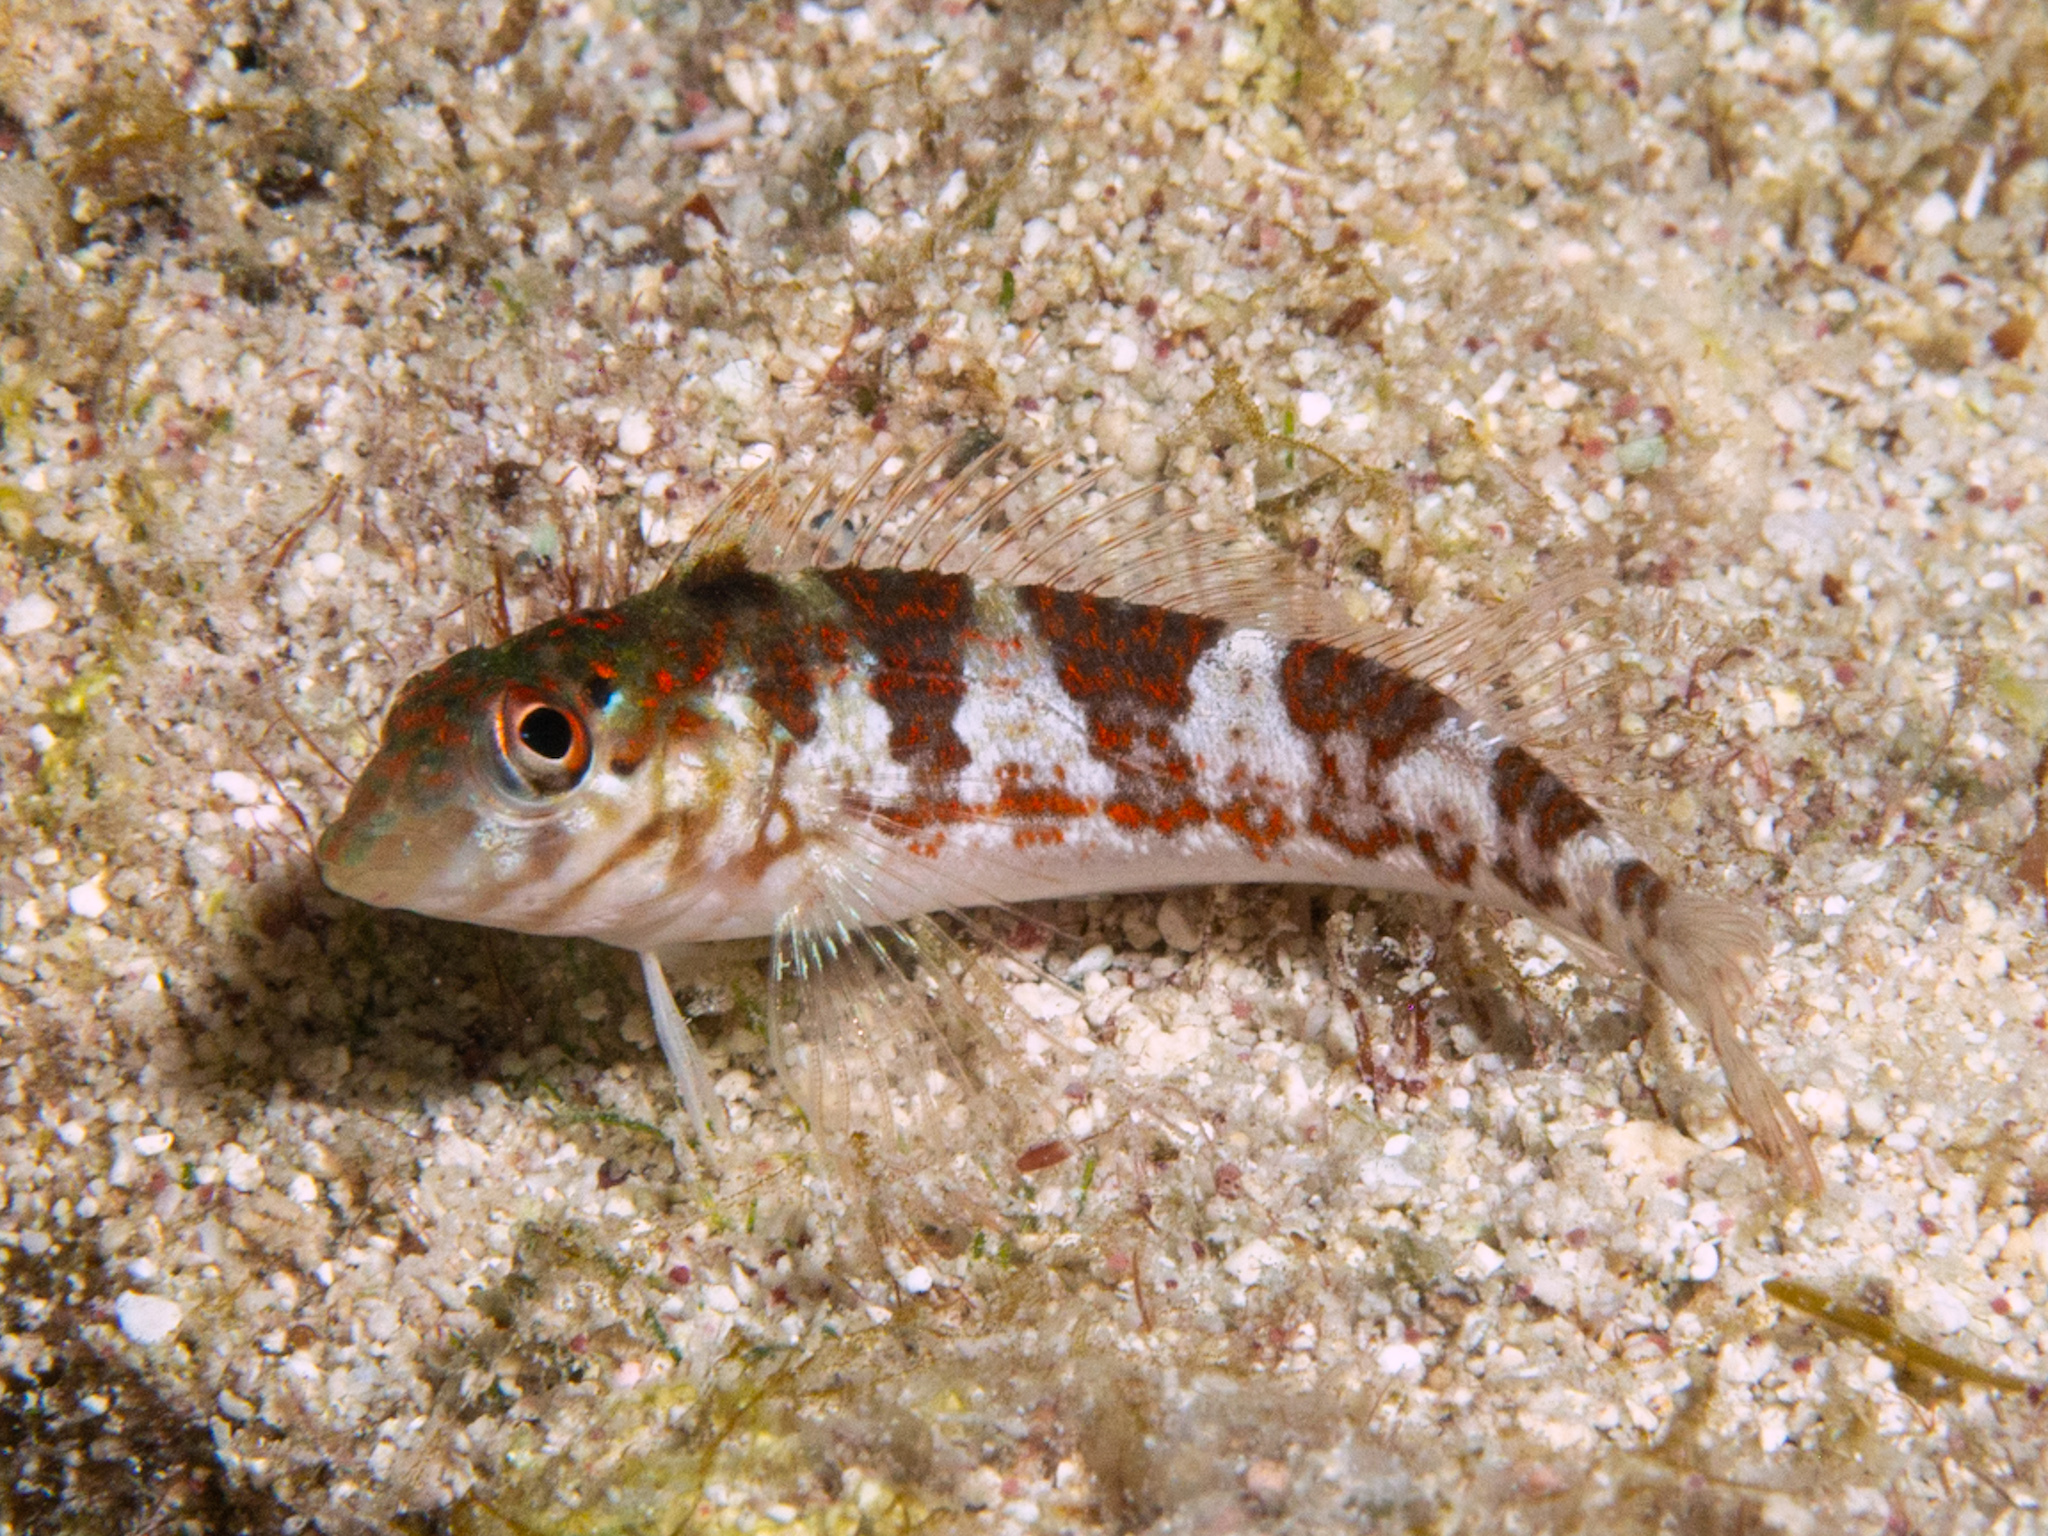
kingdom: Animalia
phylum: Chordata
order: Perciformes
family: Labrisomidae
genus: Malacoctenus
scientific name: Malacoctenus triangulatus
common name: Saddled blenny
